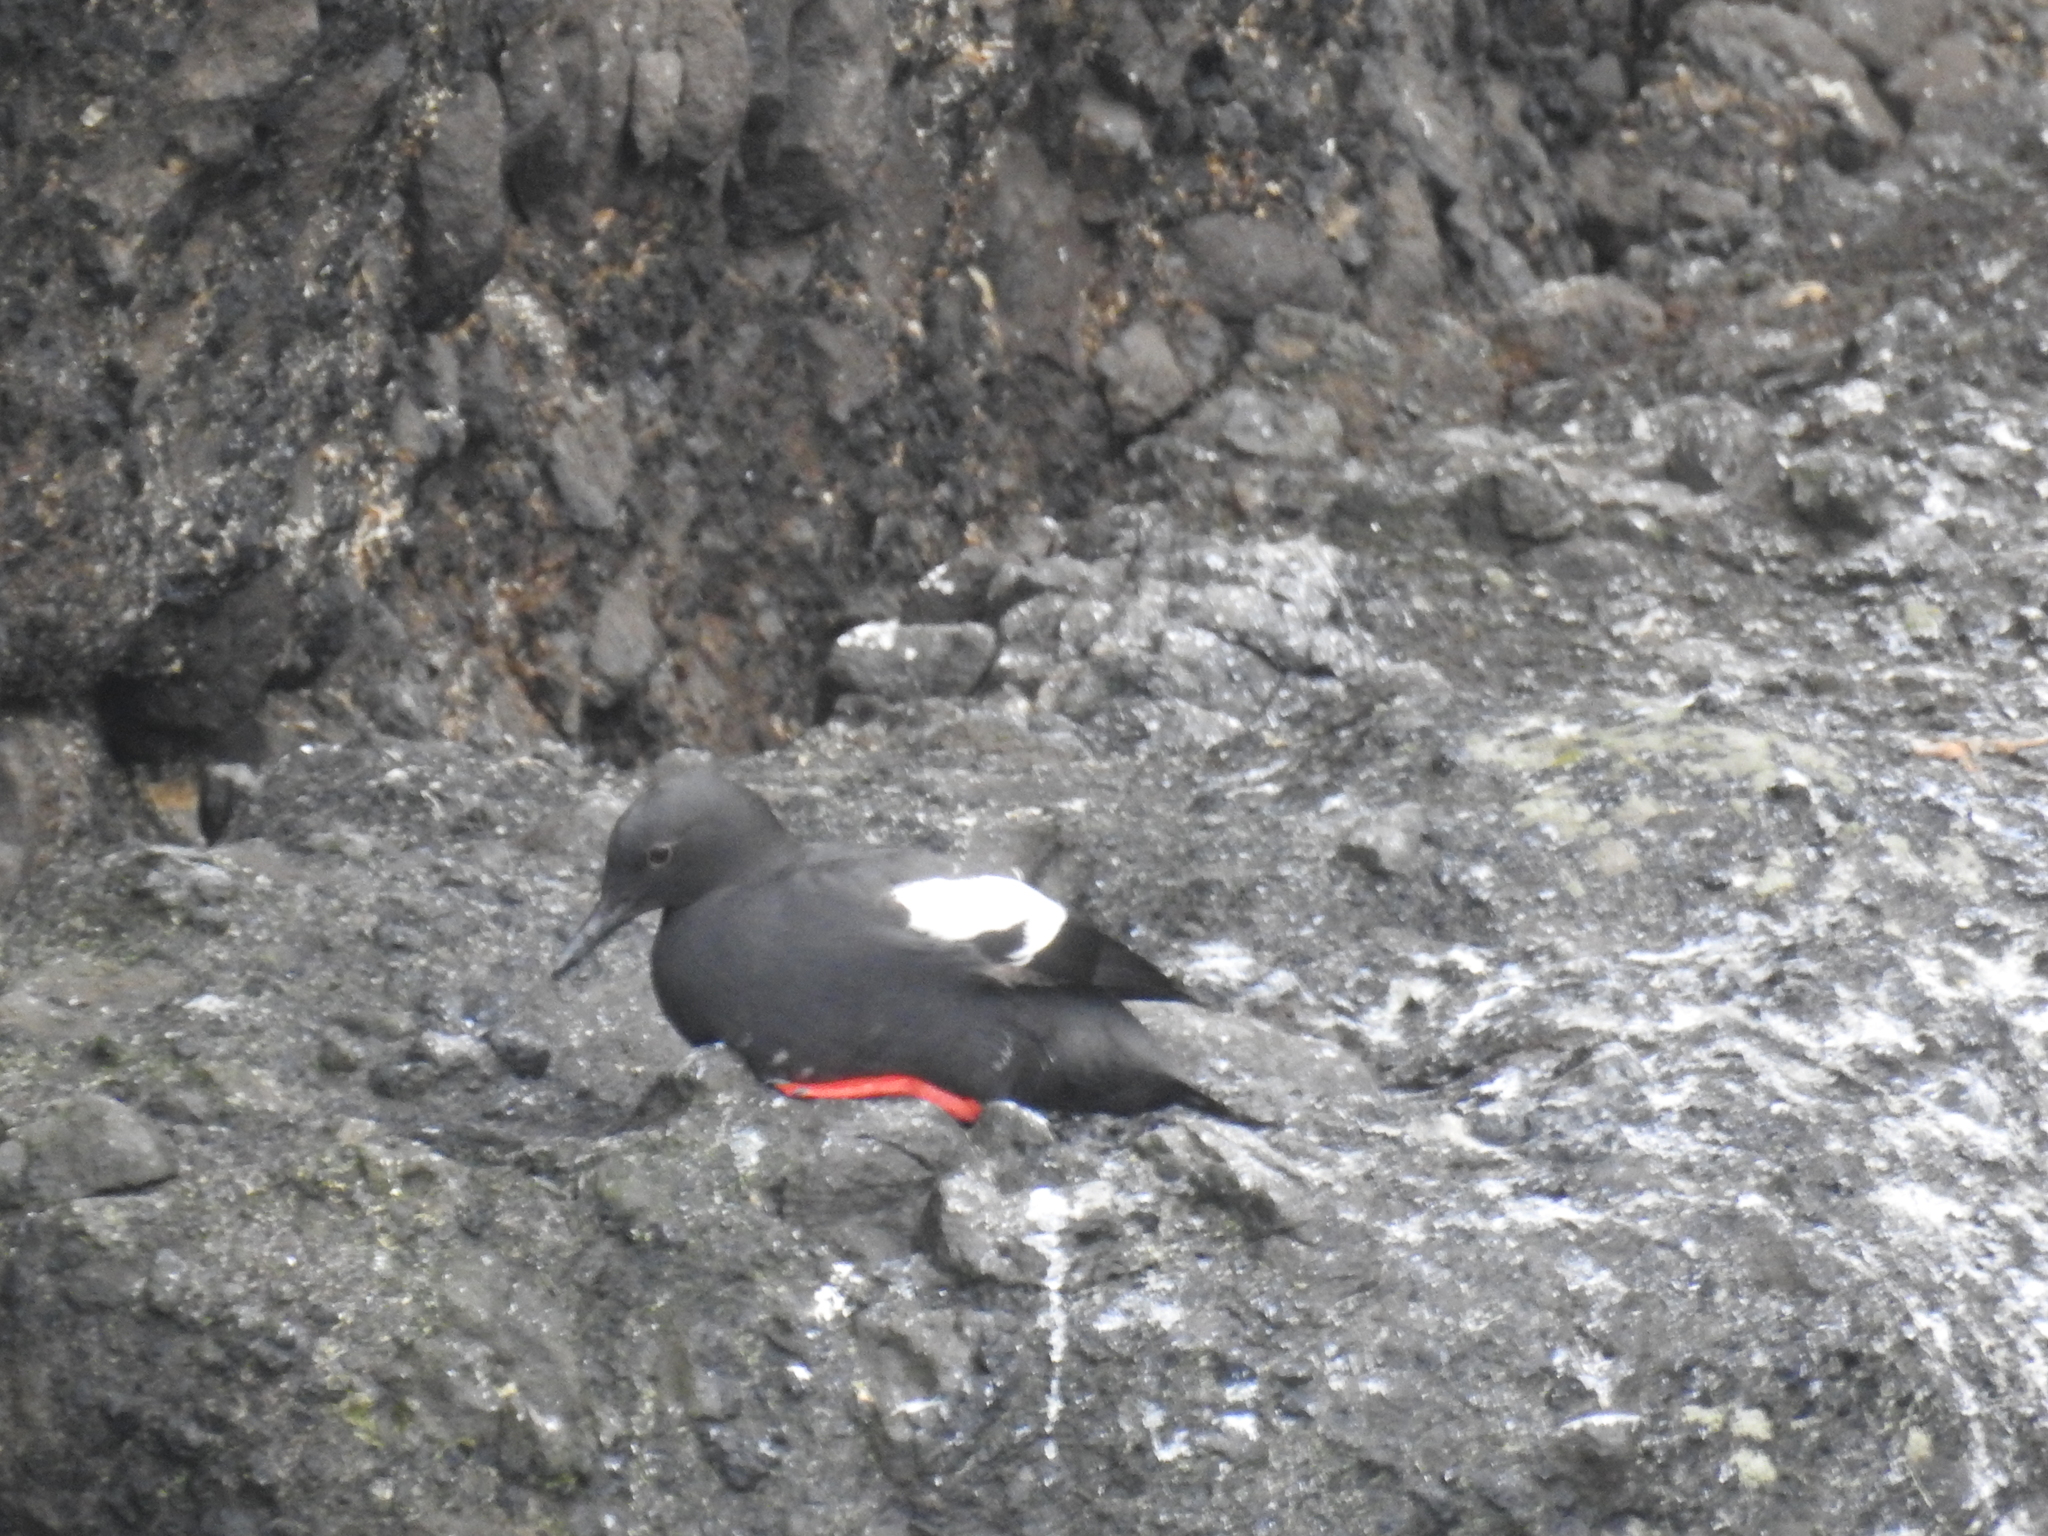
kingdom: Animalia
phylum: Chordata
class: Aves
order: Charadriiformes
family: Alcidae
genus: Cepphus
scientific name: Cepphus columba
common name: Pigeon guillemot
